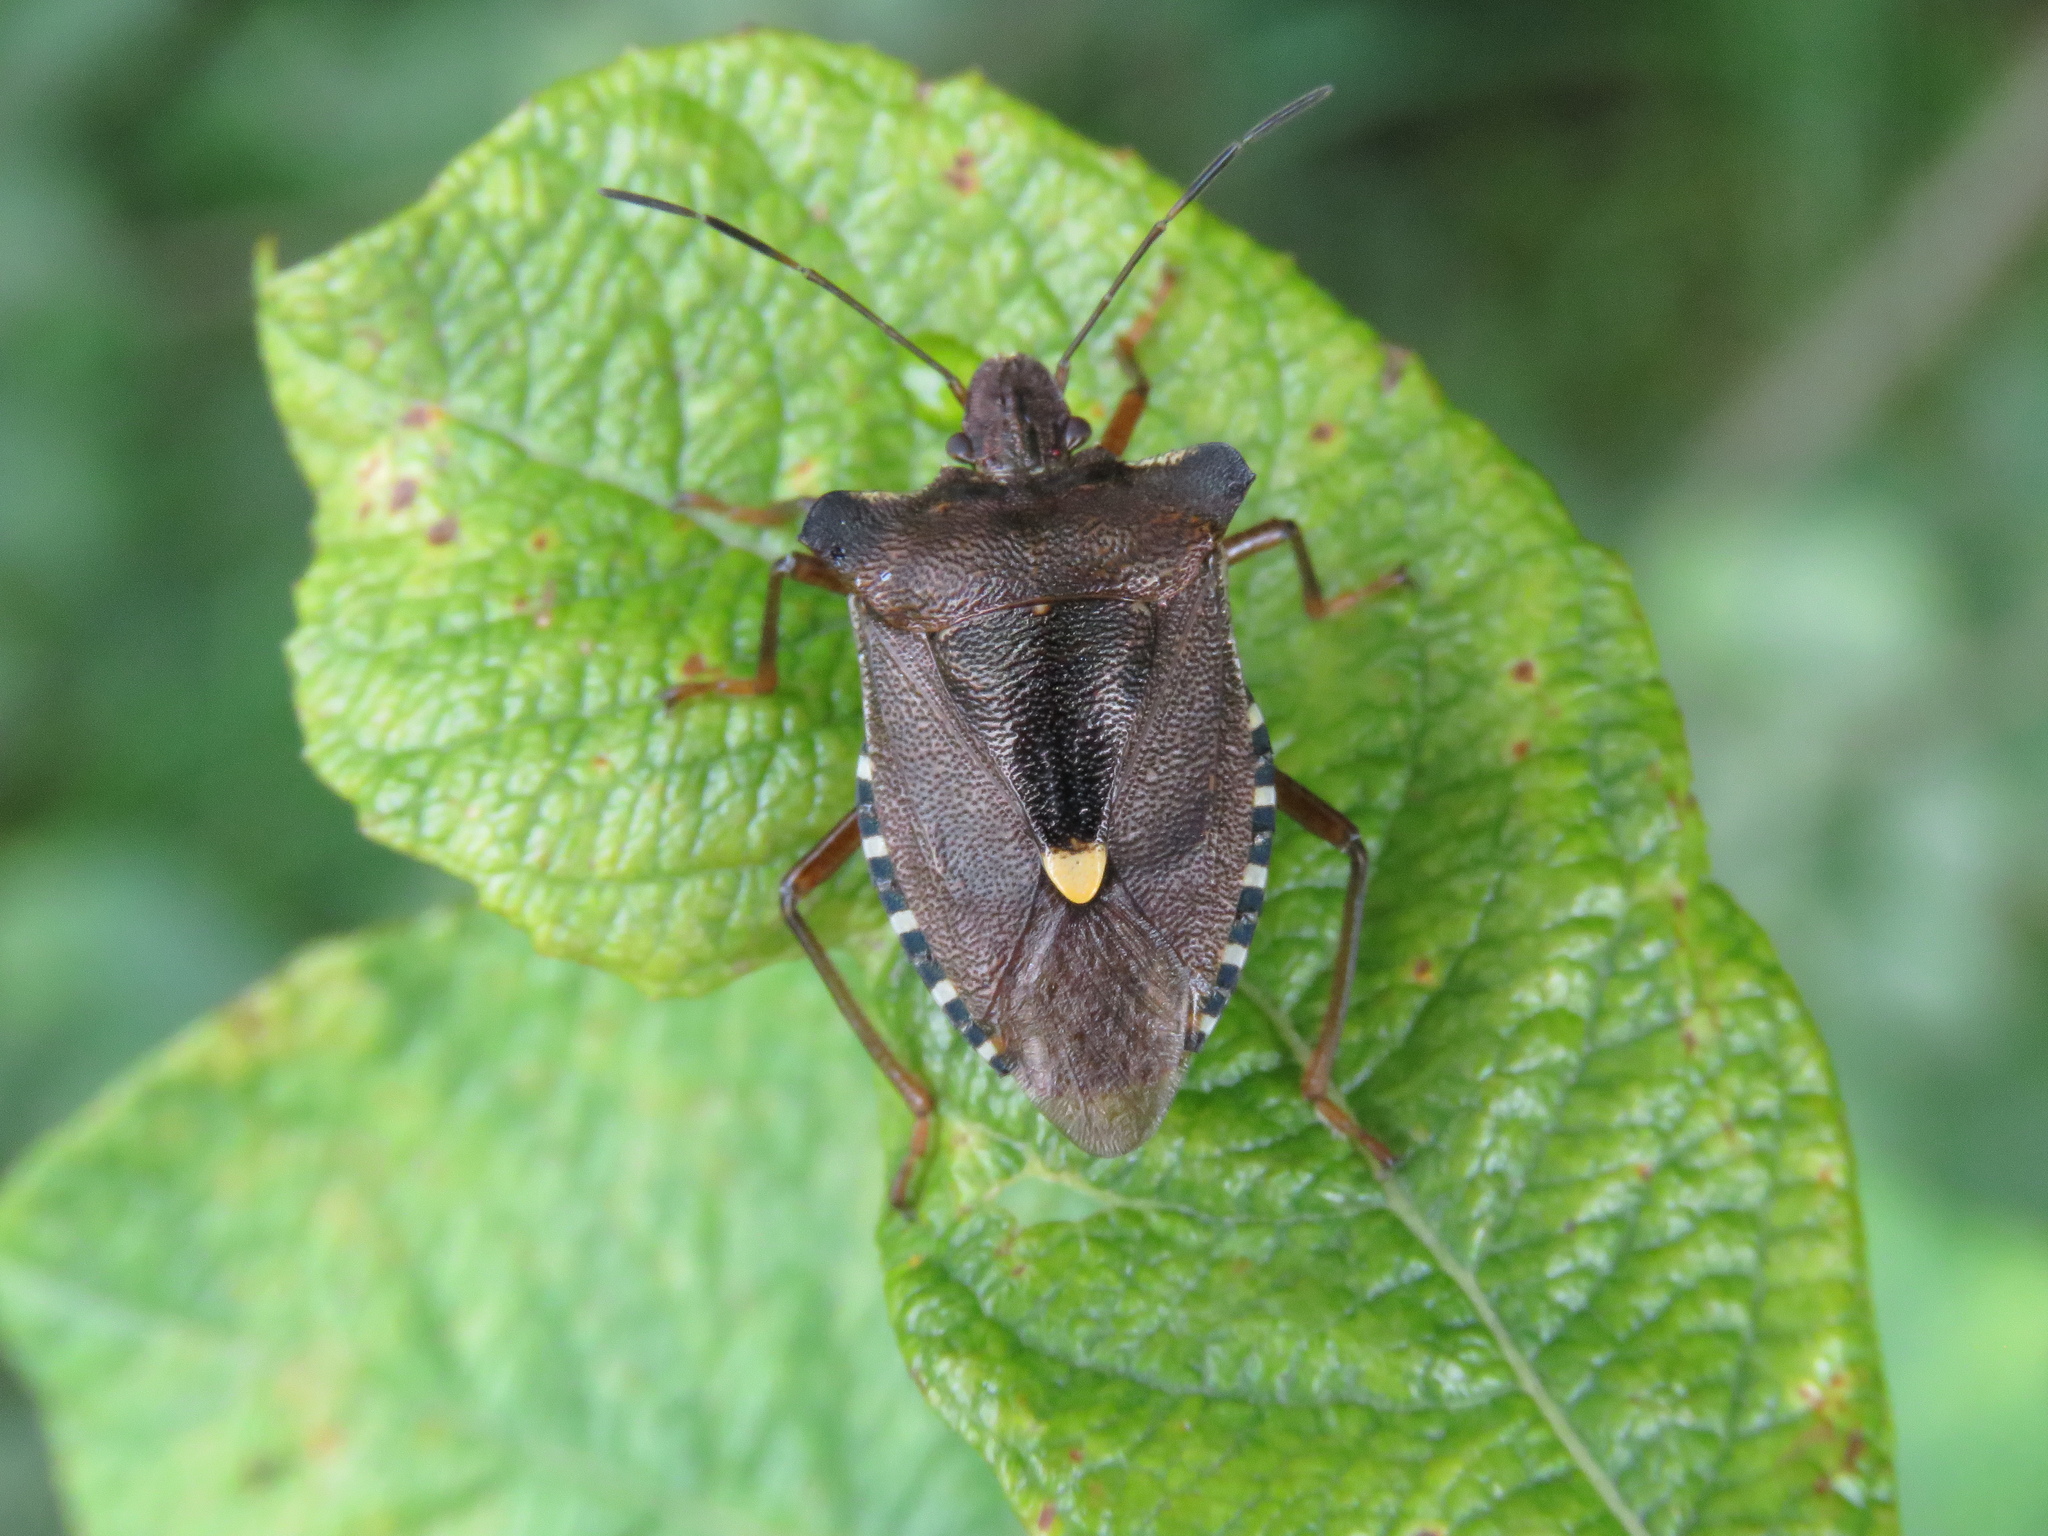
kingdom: Animalia
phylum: Arthropoda
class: Insecta
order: Hemiptera
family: Pentatomidae
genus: Pentatoma
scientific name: Pentatoma rufipes
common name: Forest bug
